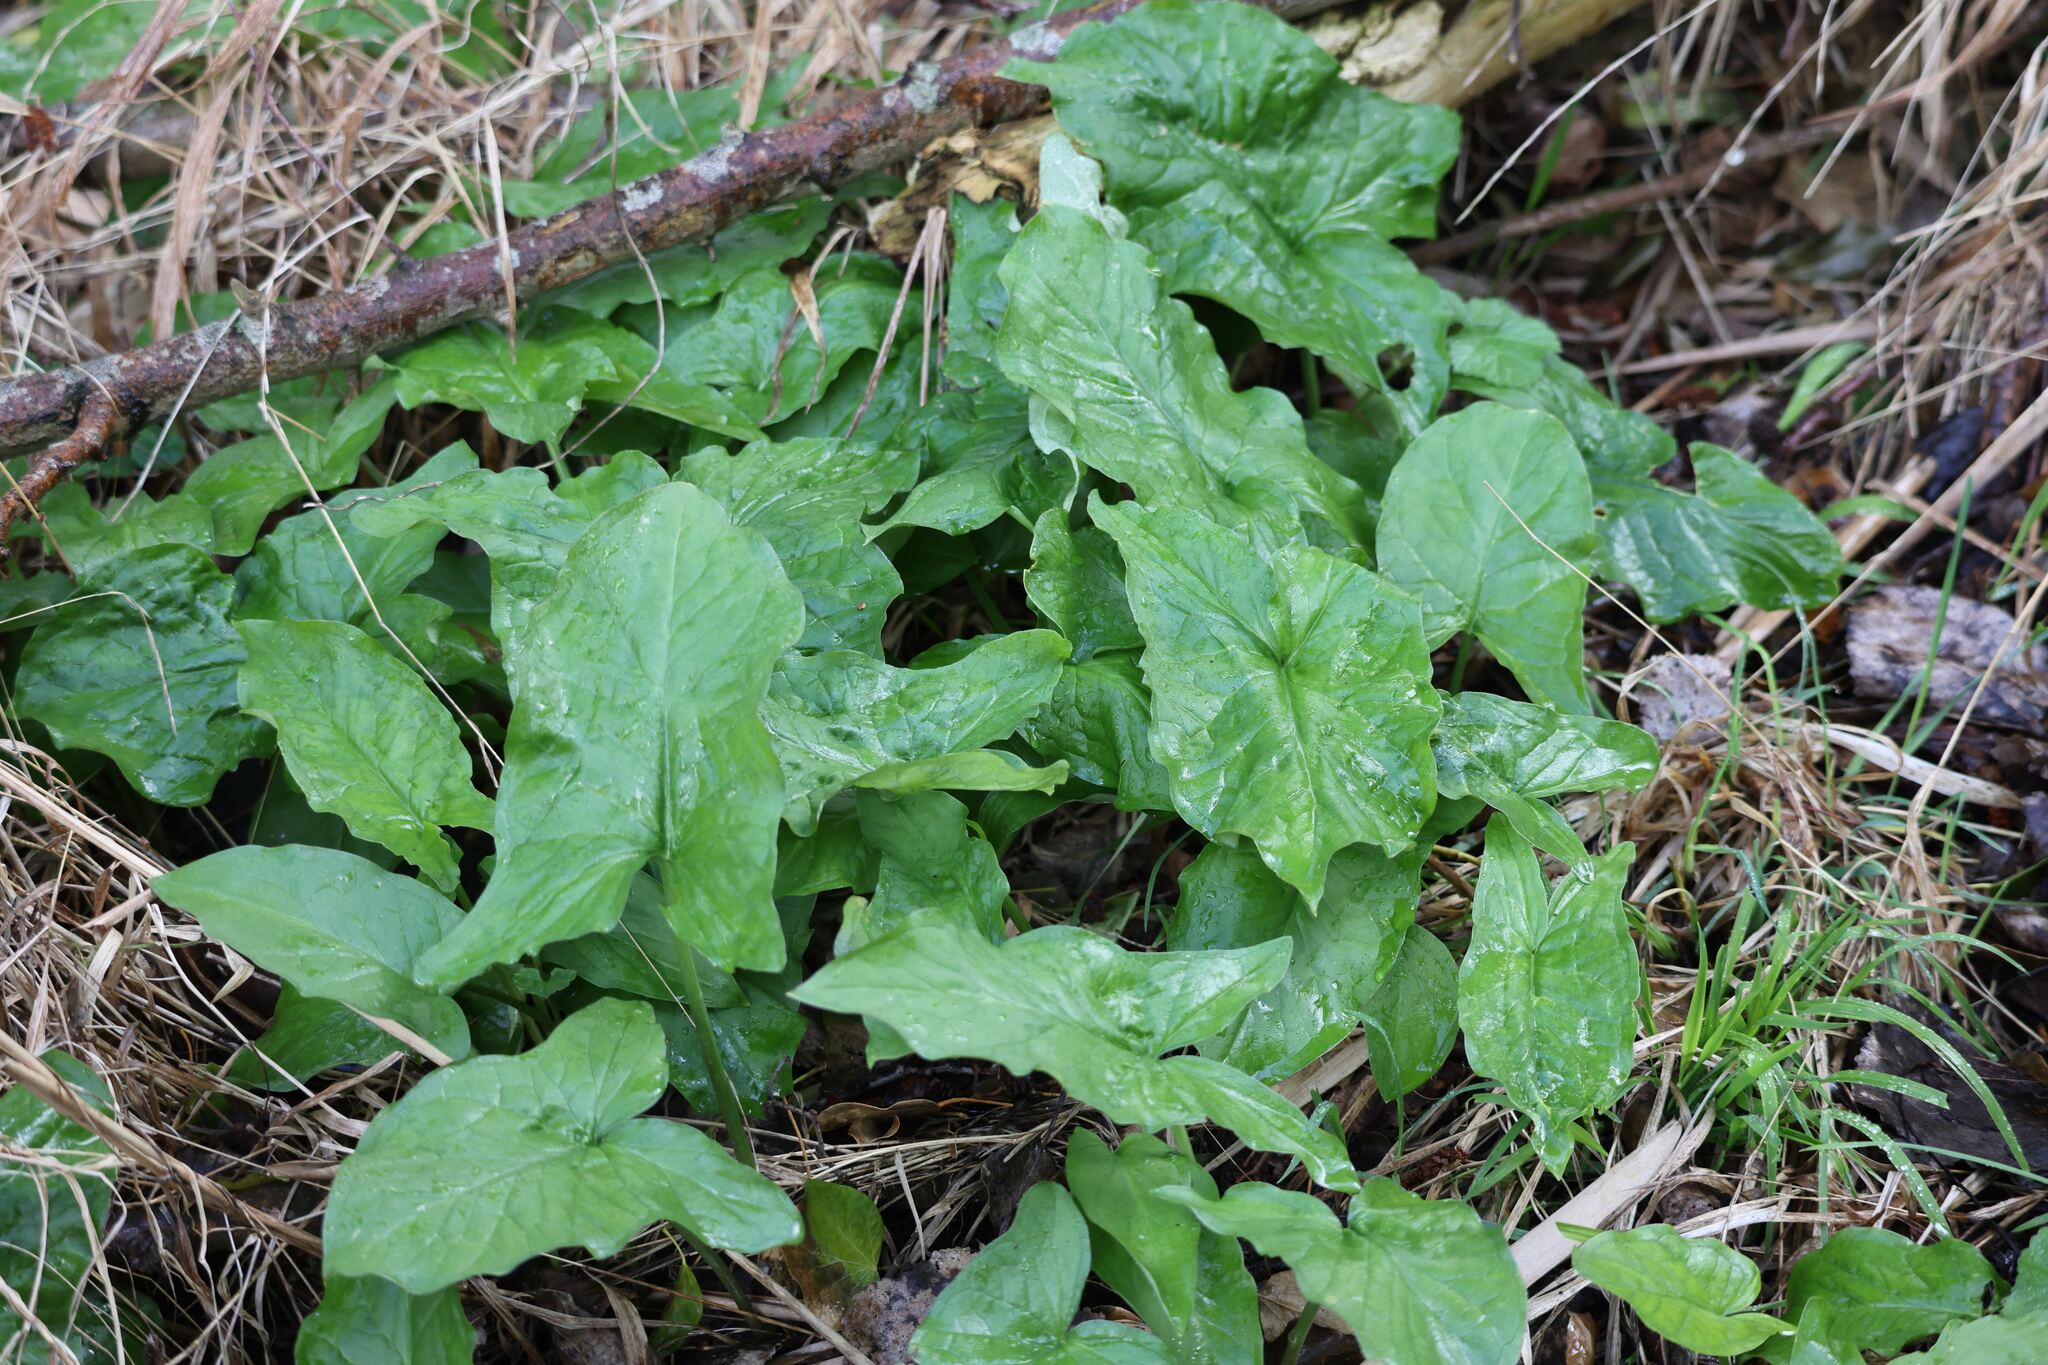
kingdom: Plantae
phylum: Tracheophyta
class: Liliopsida
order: Alismatales
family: Araceae
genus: Arum
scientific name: Arum maculatum
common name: Lords-and-ladies
